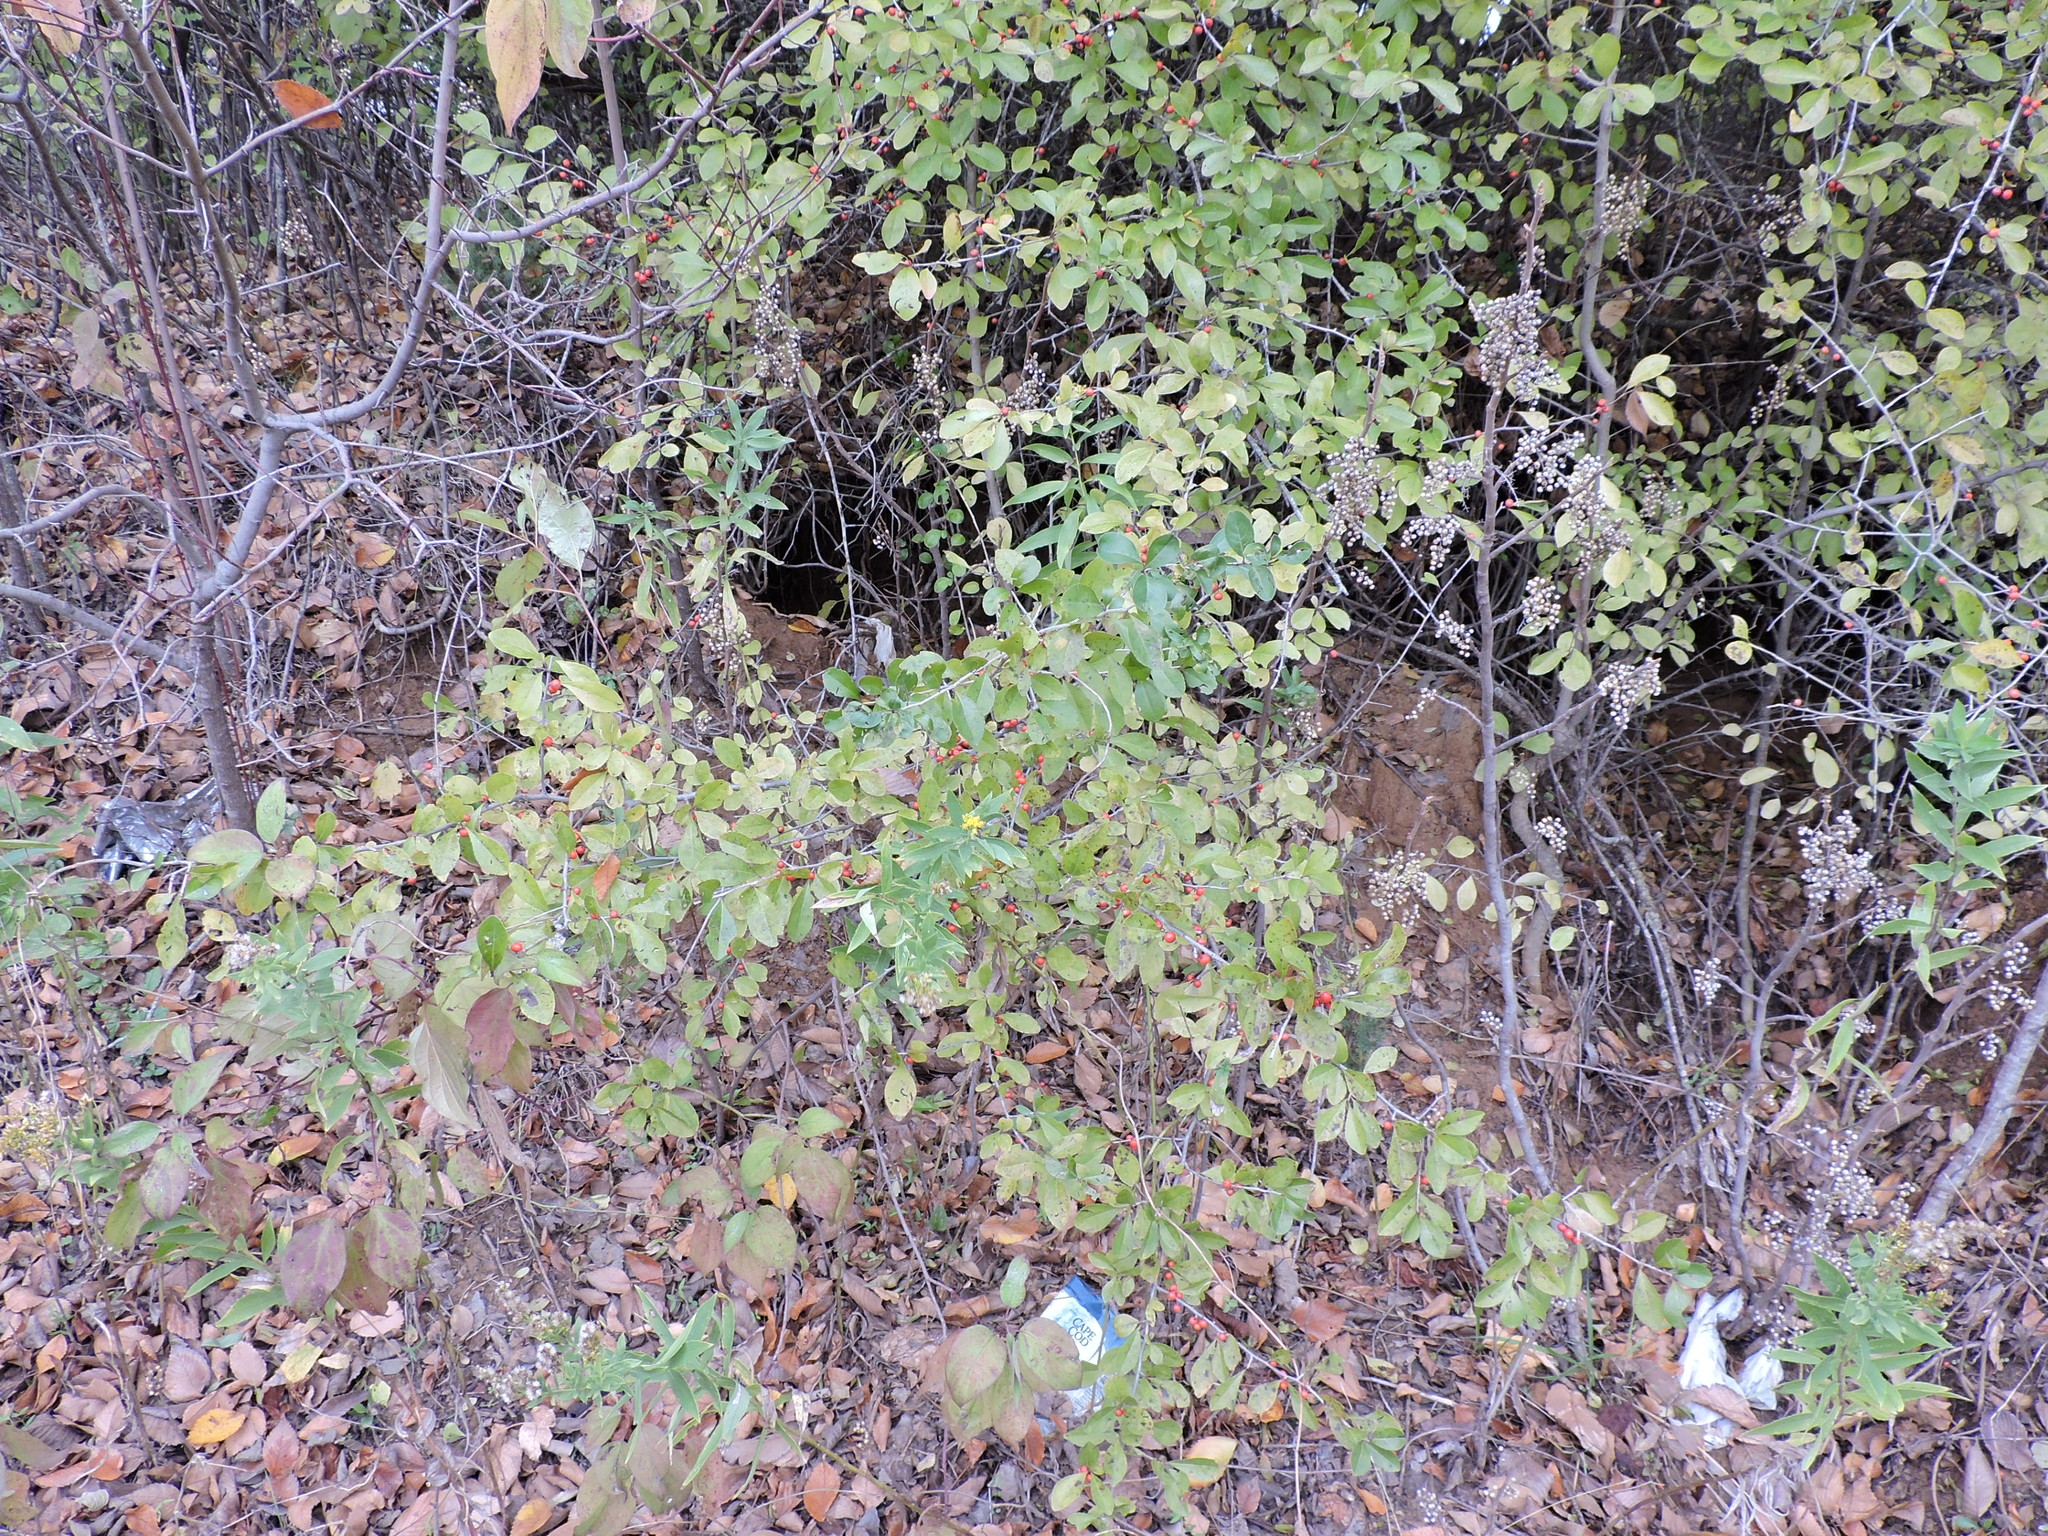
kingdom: Plantae
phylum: Tracheophyta
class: Magnoliopsida
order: Aquifoliales
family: Aquifoliaceae
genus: Ilex
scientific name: Ilex decidua
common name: Possum-haw
